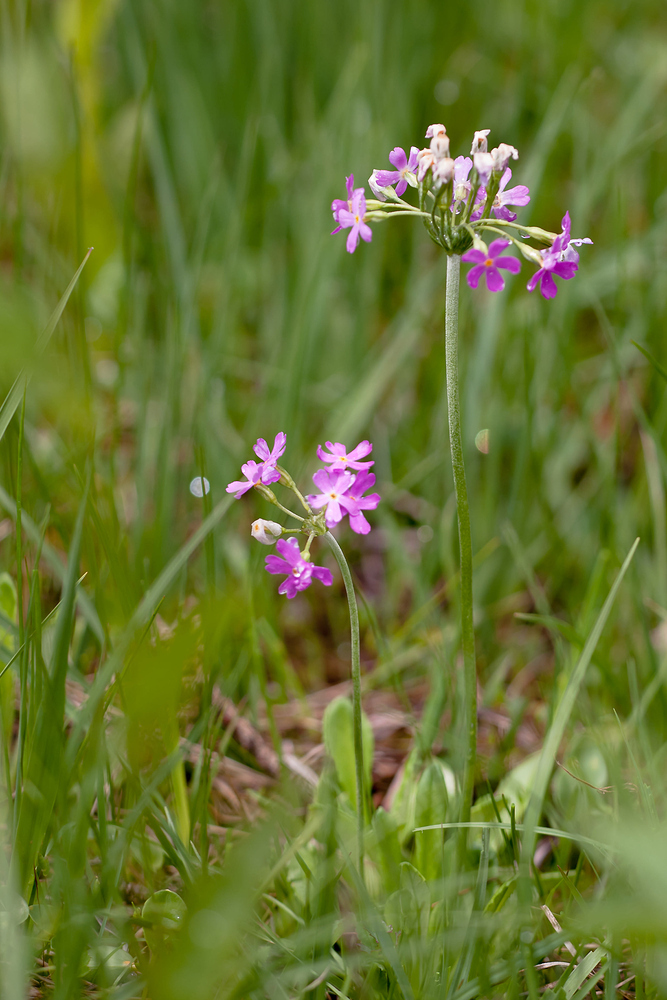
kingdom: Plantae
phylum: Tracheophyta
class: Magnoliopsida
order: Ericales
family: Primulaceae
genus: Primula
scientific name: Primula farinosa
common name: Bird's-eye primrose
